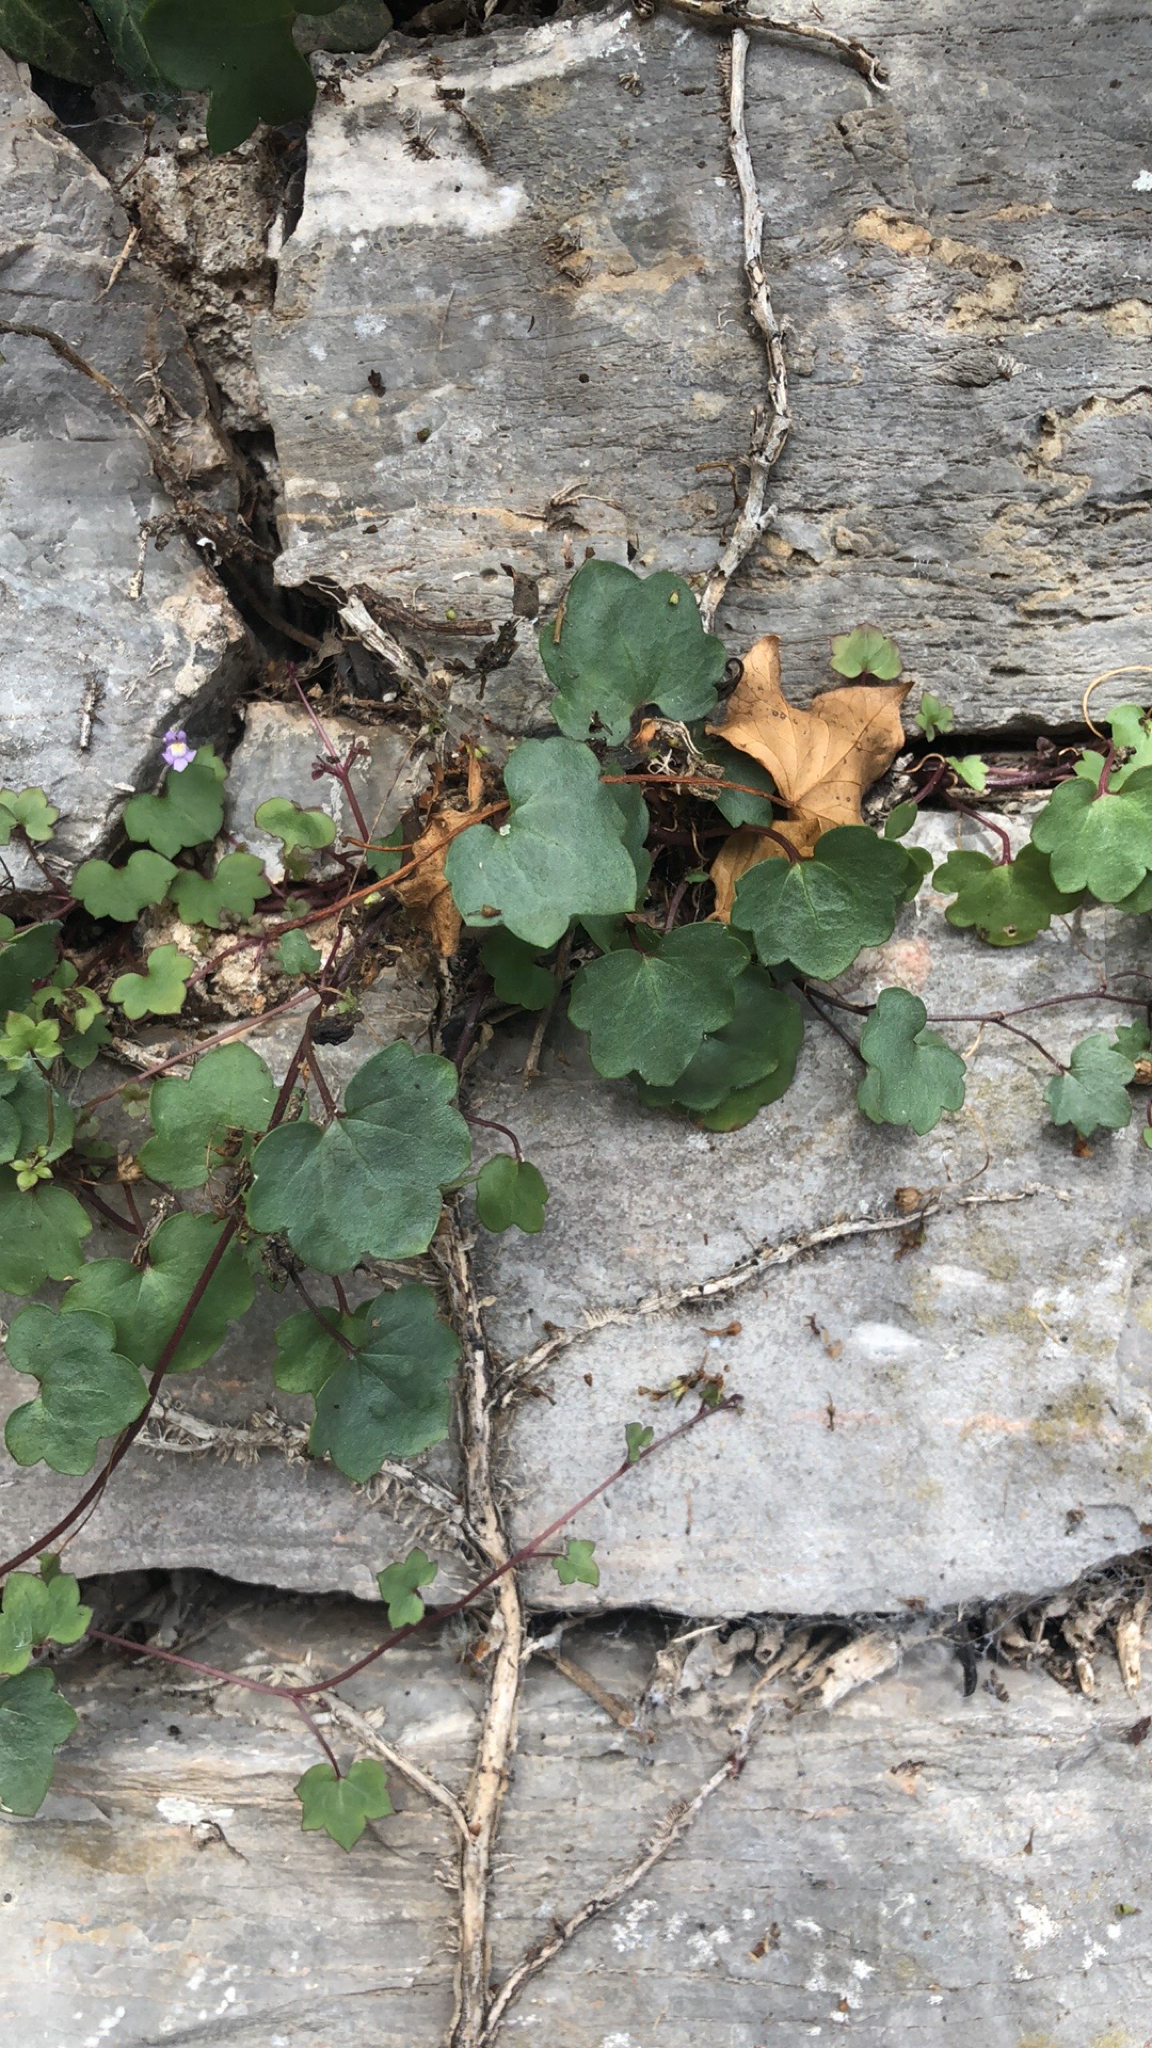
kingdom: Plantae
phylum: Tracheophyta
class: Magnoliopsida
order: Lamiales
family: Plantaginaceae
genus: Cymbalaria
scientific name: Cymbalaria muralis
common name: Ivy-leaved toadflax
